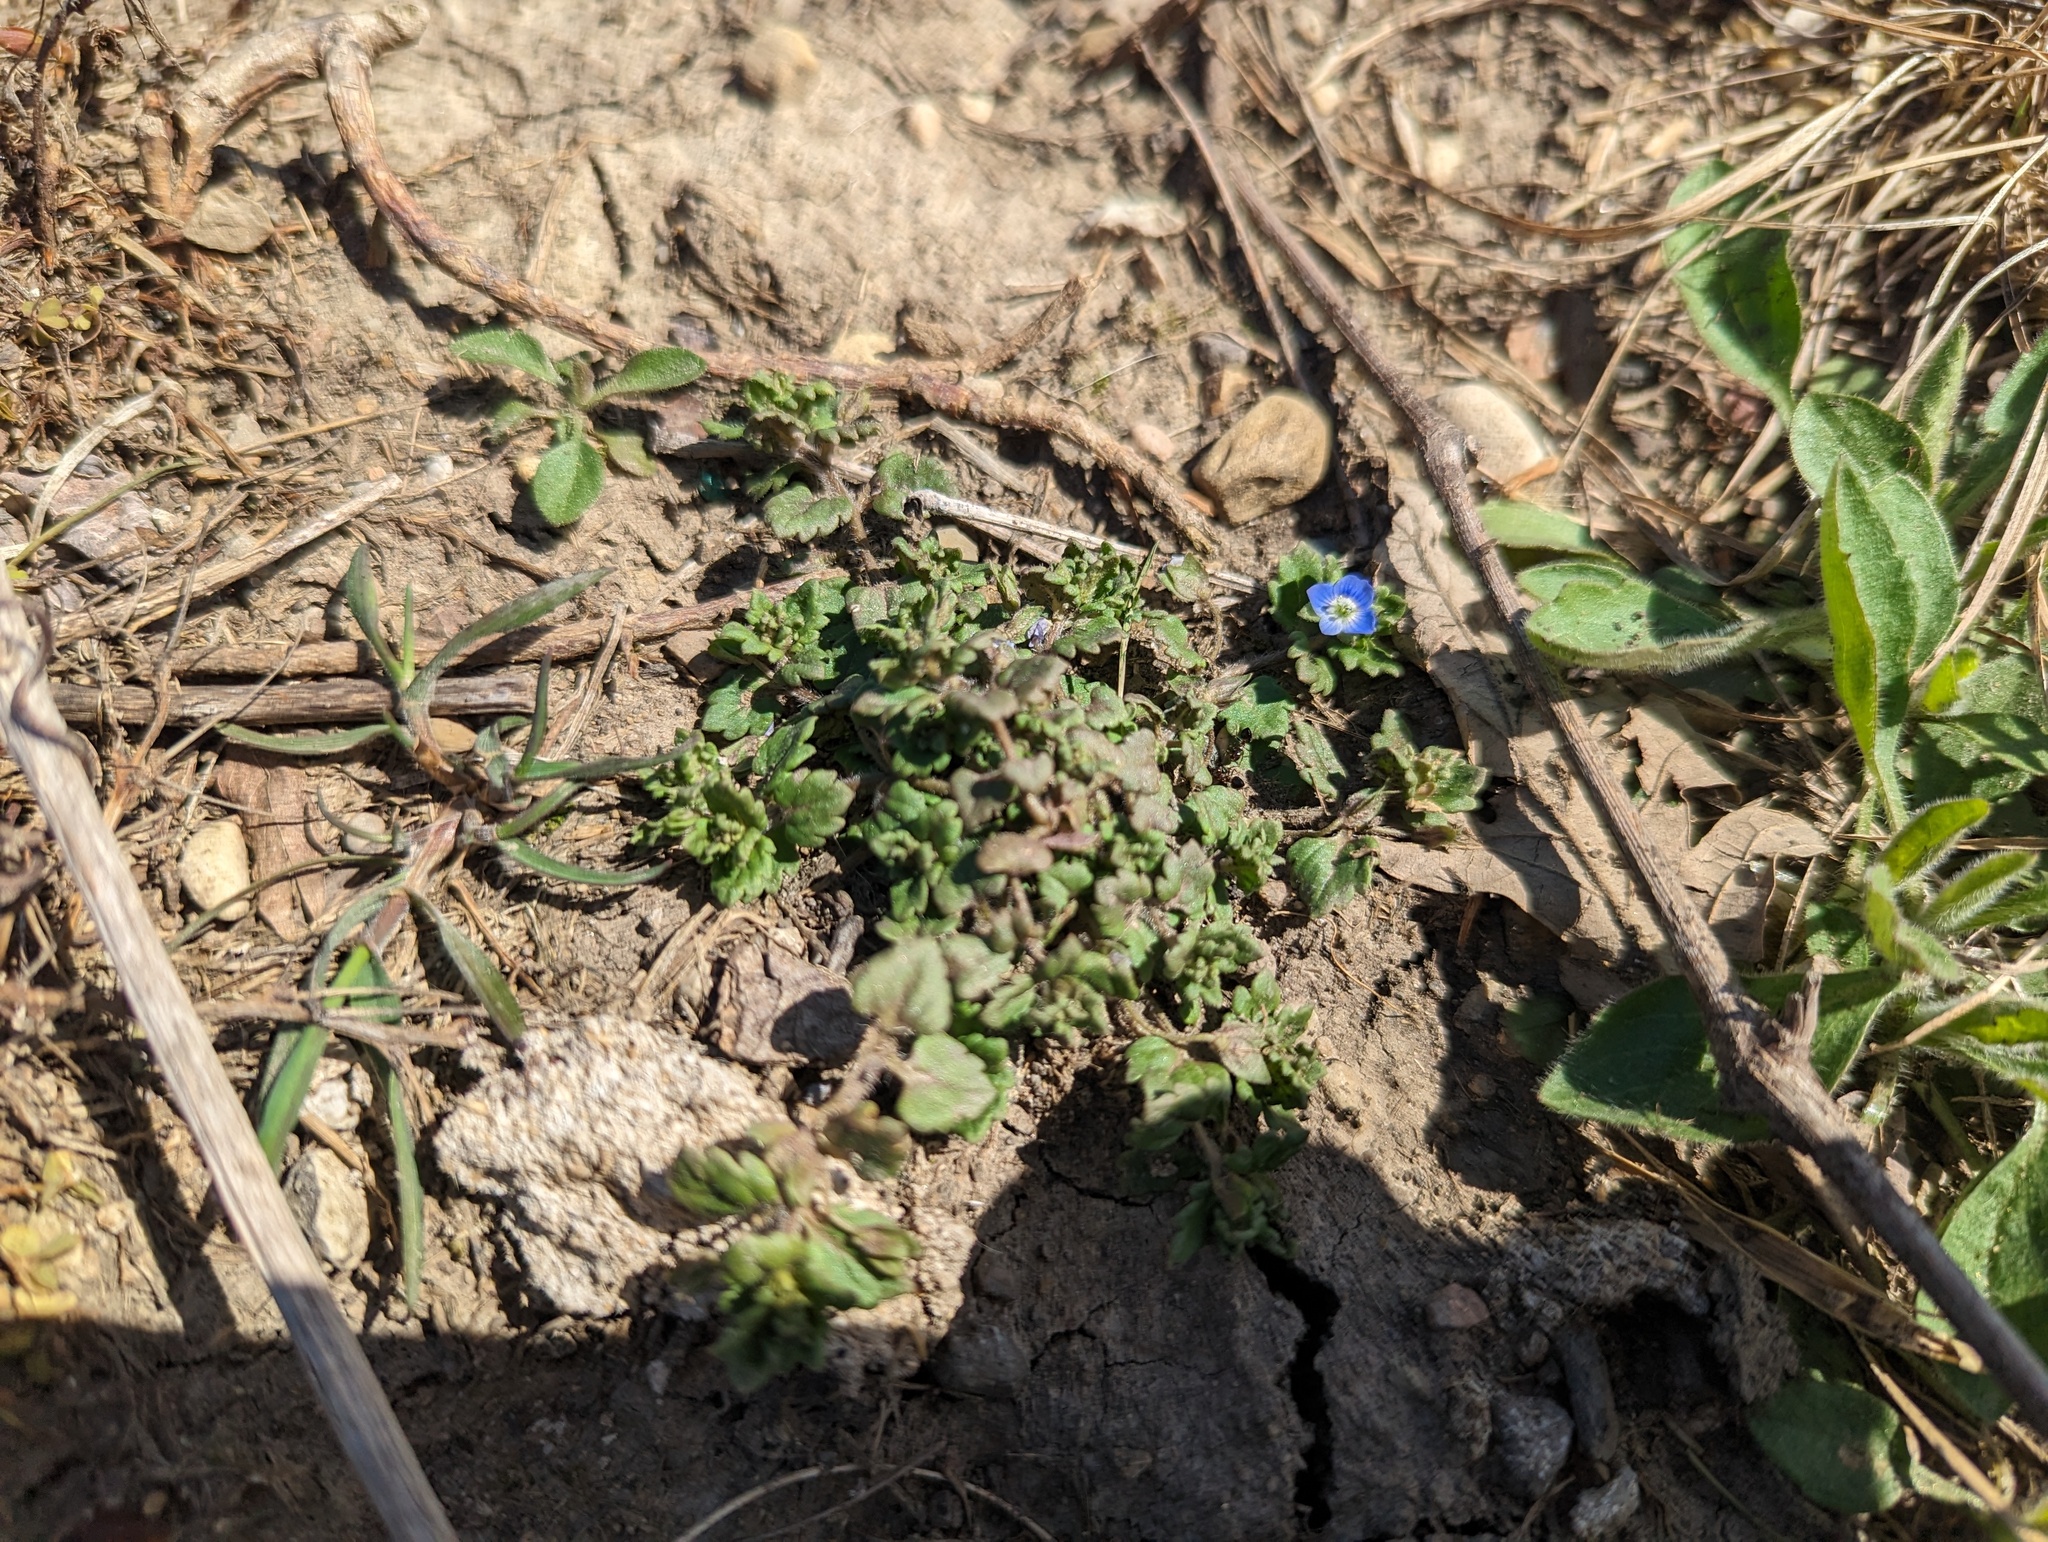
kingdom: Plantae
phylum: Tracheophyta
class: Magnoliopsida
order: Lamiales
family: Plantaginaceae
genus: Veronica
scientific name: Veronica polita
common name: Grey field-speedwell
